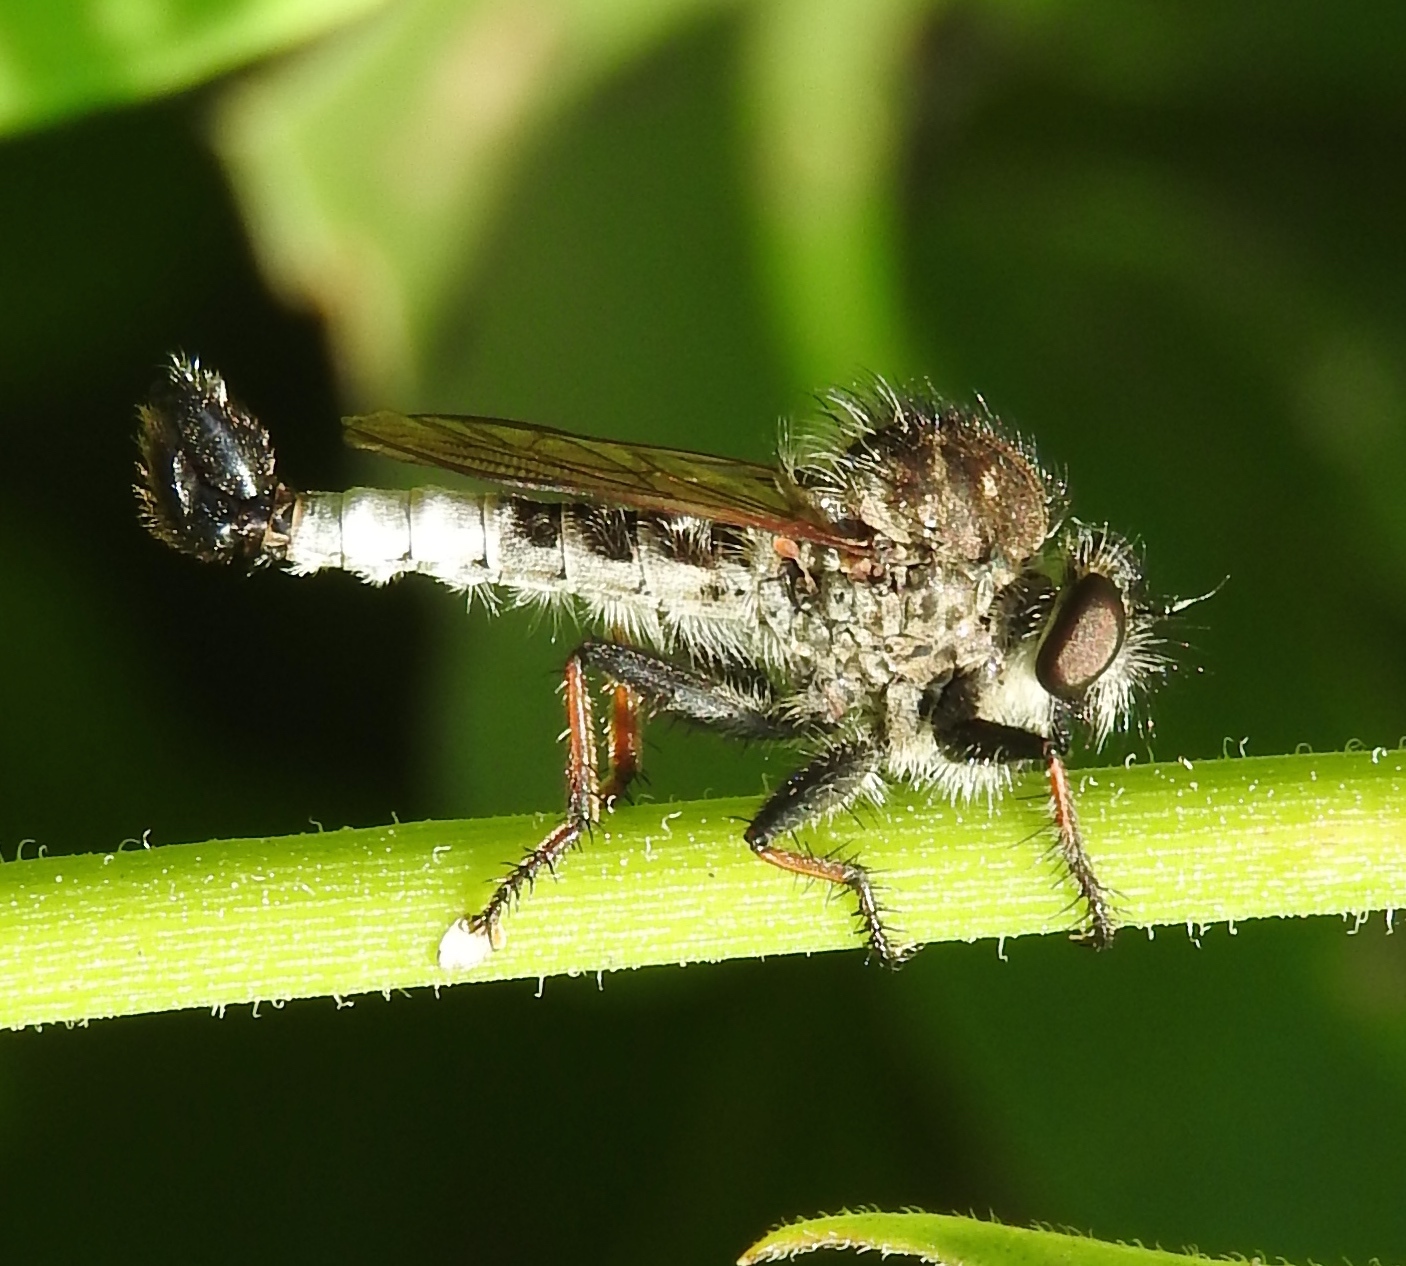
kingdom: Animalia
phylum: Arthropoda
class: Insecta
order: Diptera
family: Asilidae
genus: Efferia
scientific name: Efferia
